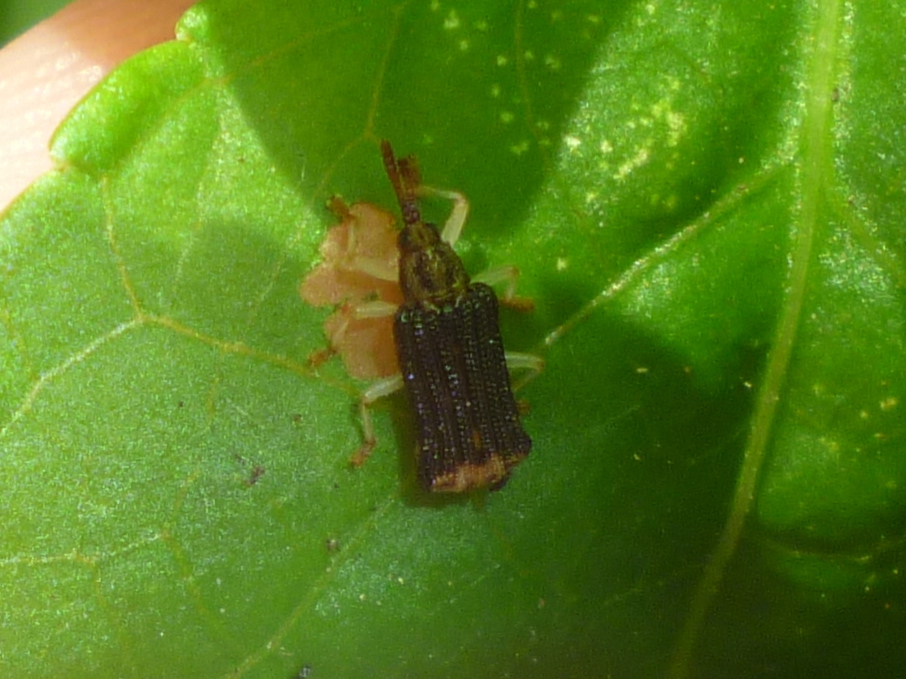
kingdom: Animalia
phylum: Arthropoda
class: Insecta
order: Coleoptera
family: Chrysomelidae
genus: Sumitrosis
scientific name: Sumitrosis rosea
